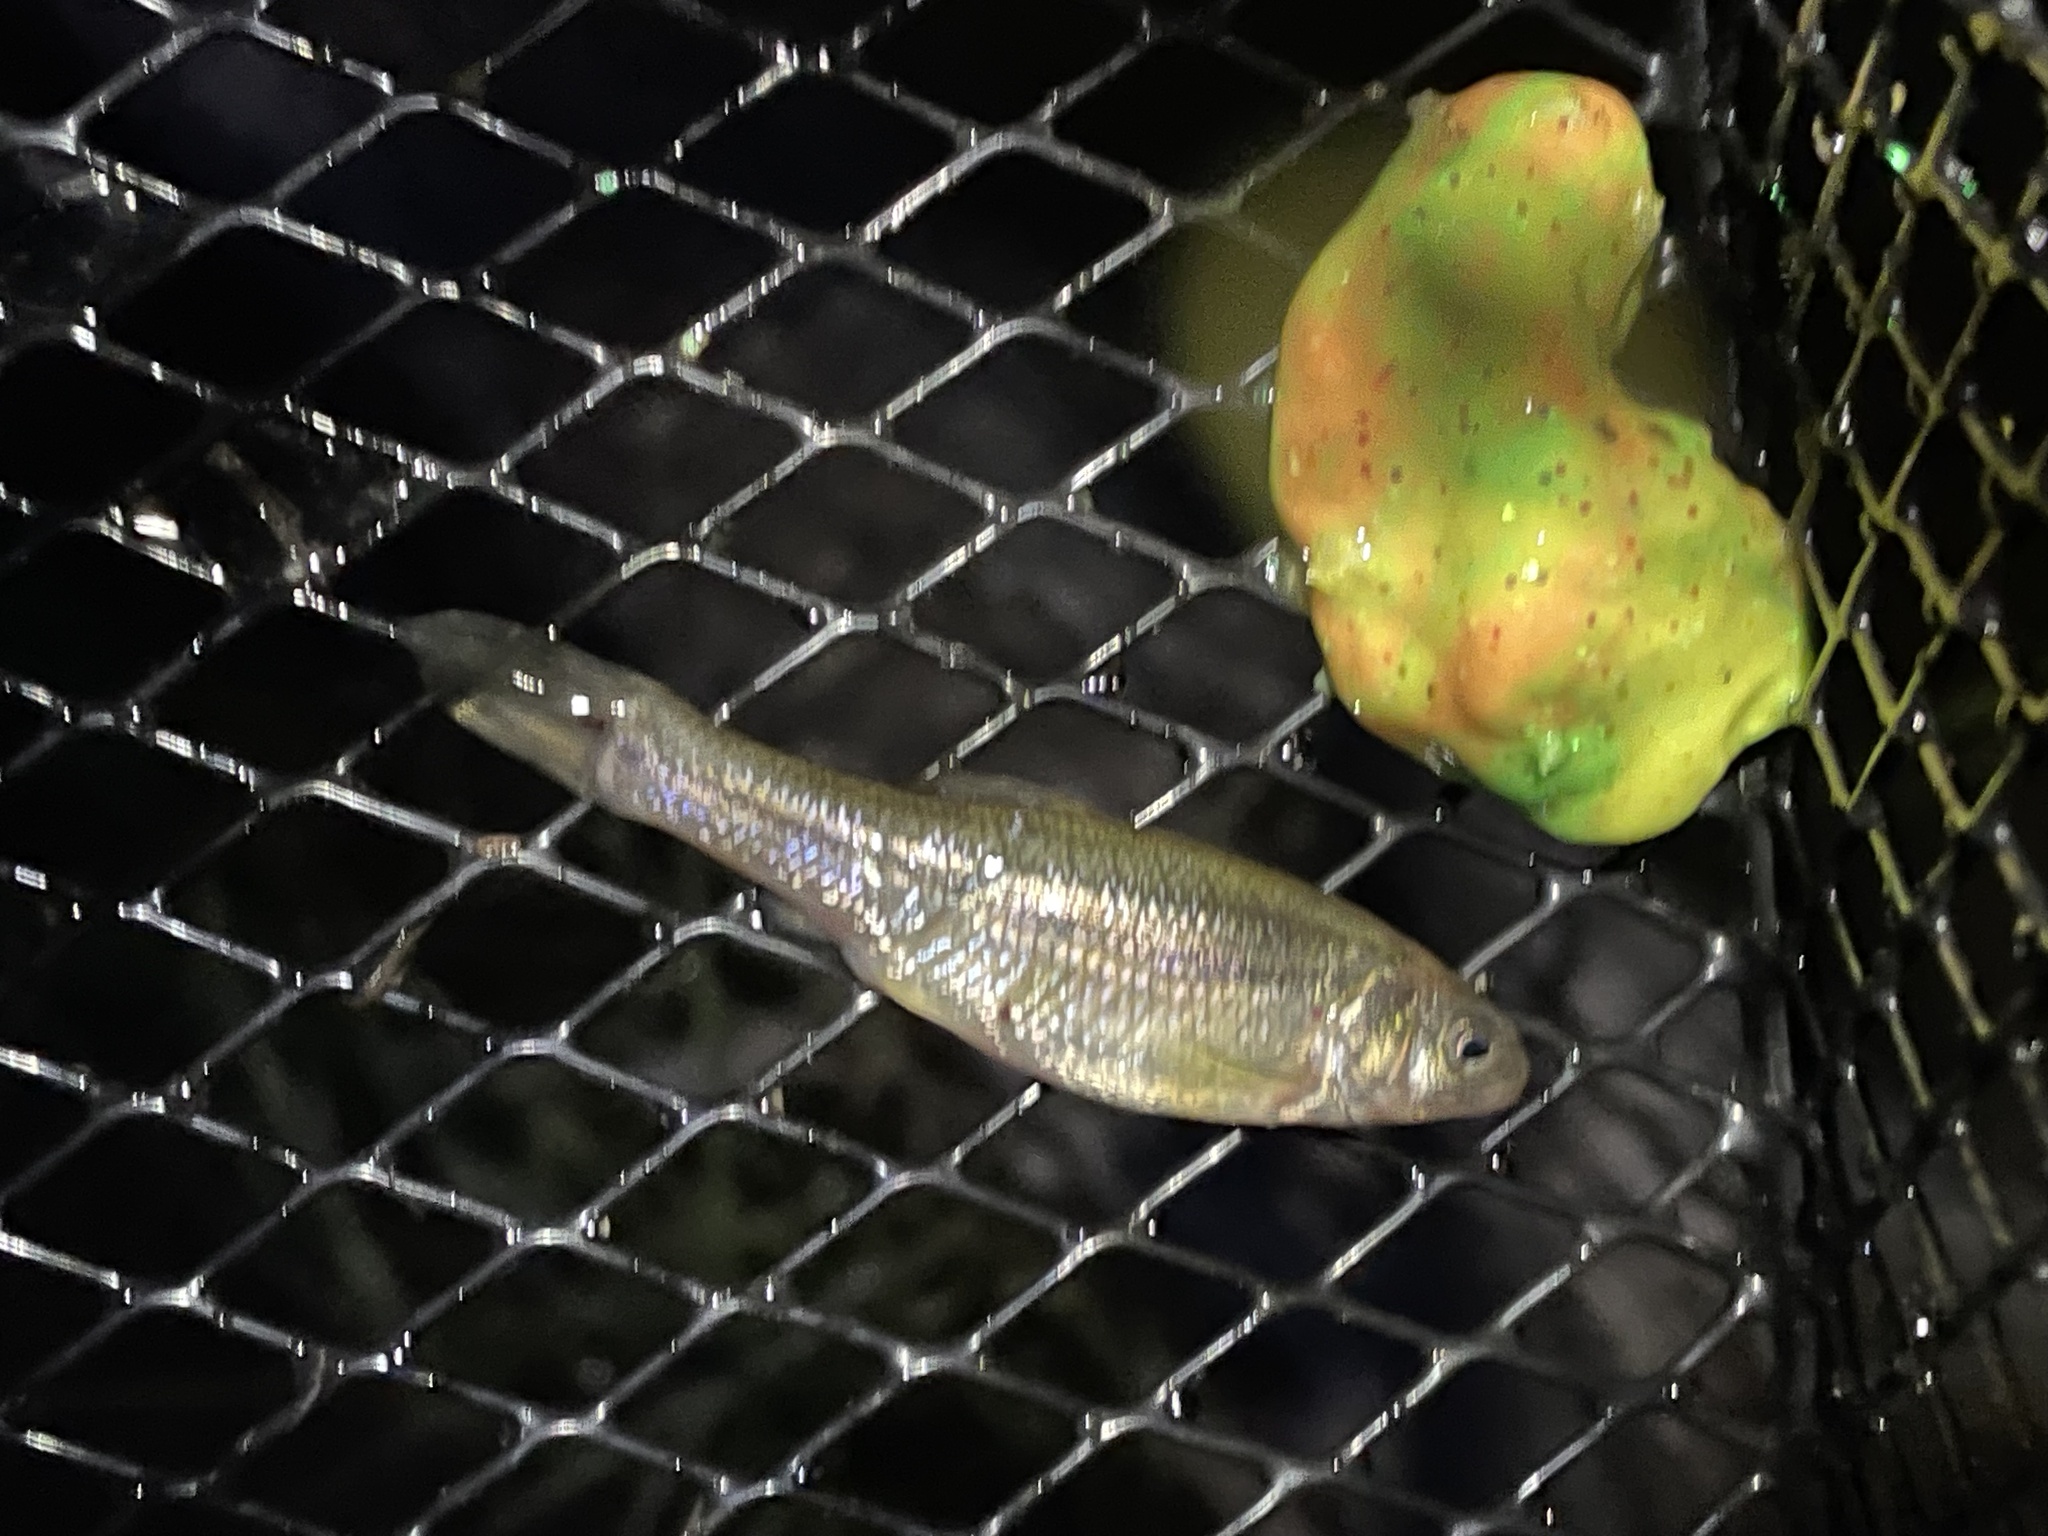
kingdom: Animalia
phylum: Chordata
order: Cypriniformes
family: Cyprinidae
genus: Pimephales
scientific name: Pimephales promelas
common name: Fathead minnow
